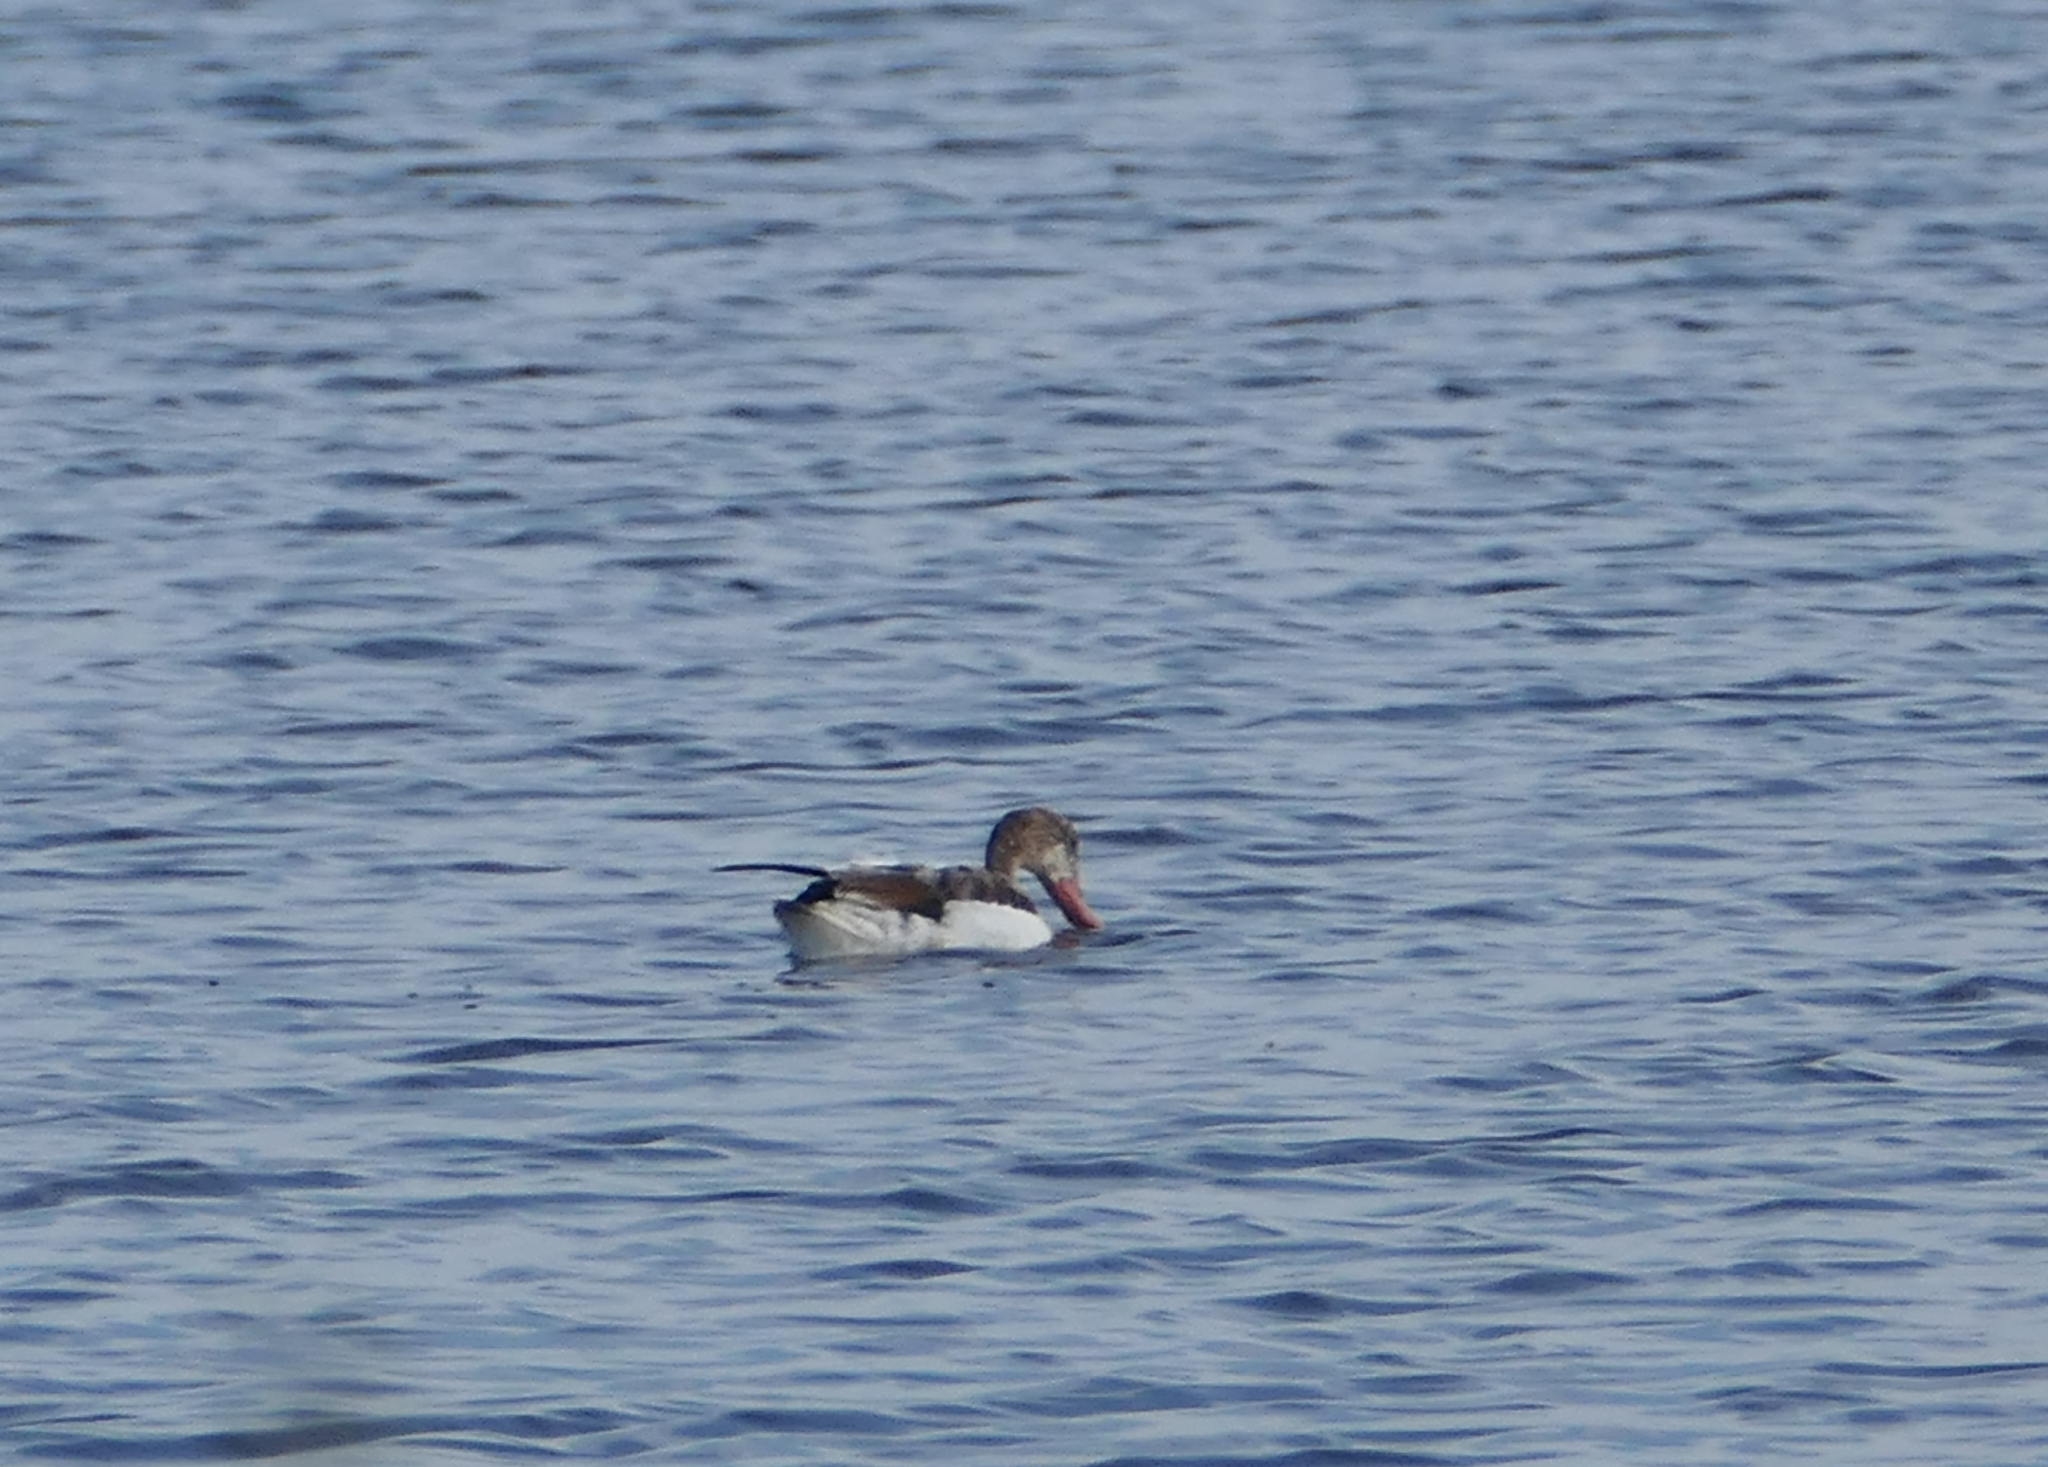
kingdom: Animalia
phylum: Chordata
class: Aves
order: Anseriformes
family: Anatidae
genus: Tadorna
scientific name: Tadorna tadorna
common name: Common shelduck
